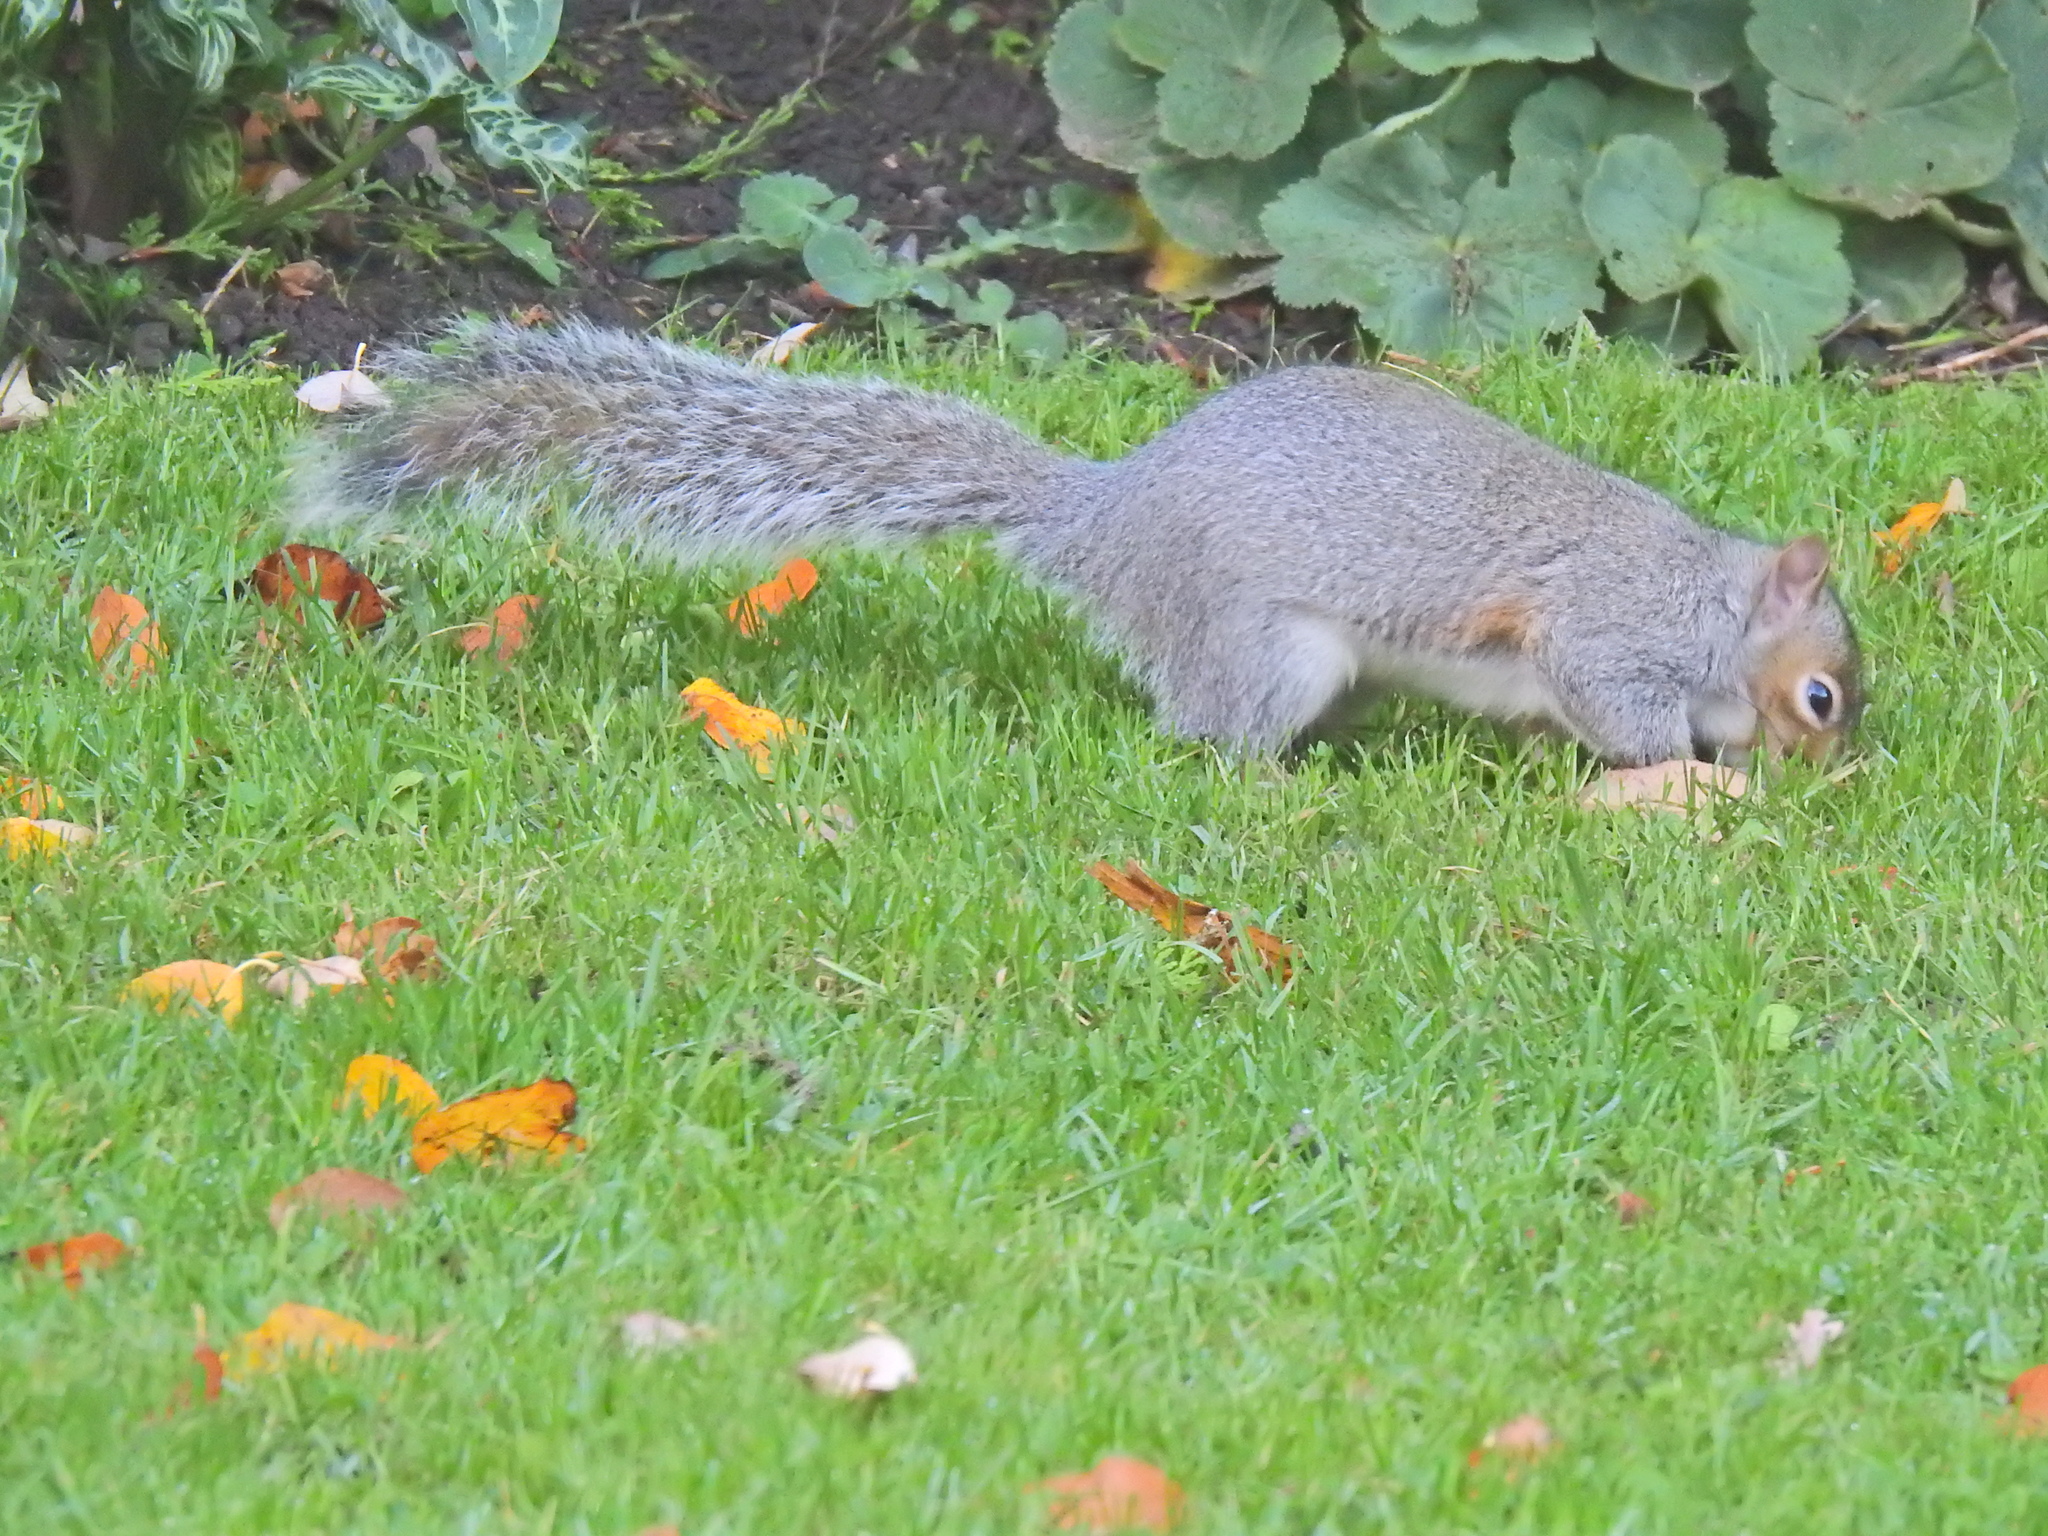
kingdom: Animalia
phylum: Chordata
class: Mammalia
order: Rodentia
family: Sciuridae
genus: Sciurus
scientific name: Sciurus carolinensis
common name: Eastern gray squirrel
